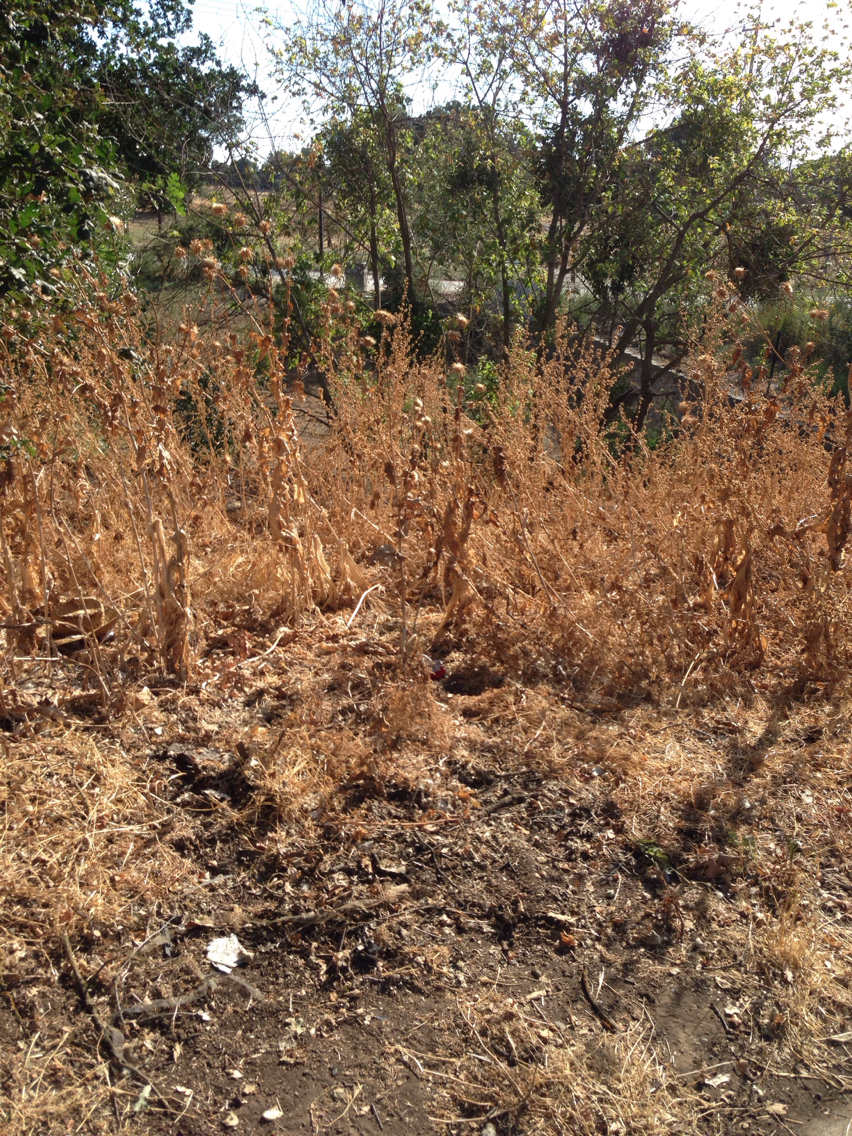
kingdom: Plantae
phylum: Tracheophyta
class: Magnoliopsida
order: Asterales
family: Asteraceae
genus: Silybum
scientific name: Silybum marianum
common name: Milk thistle
